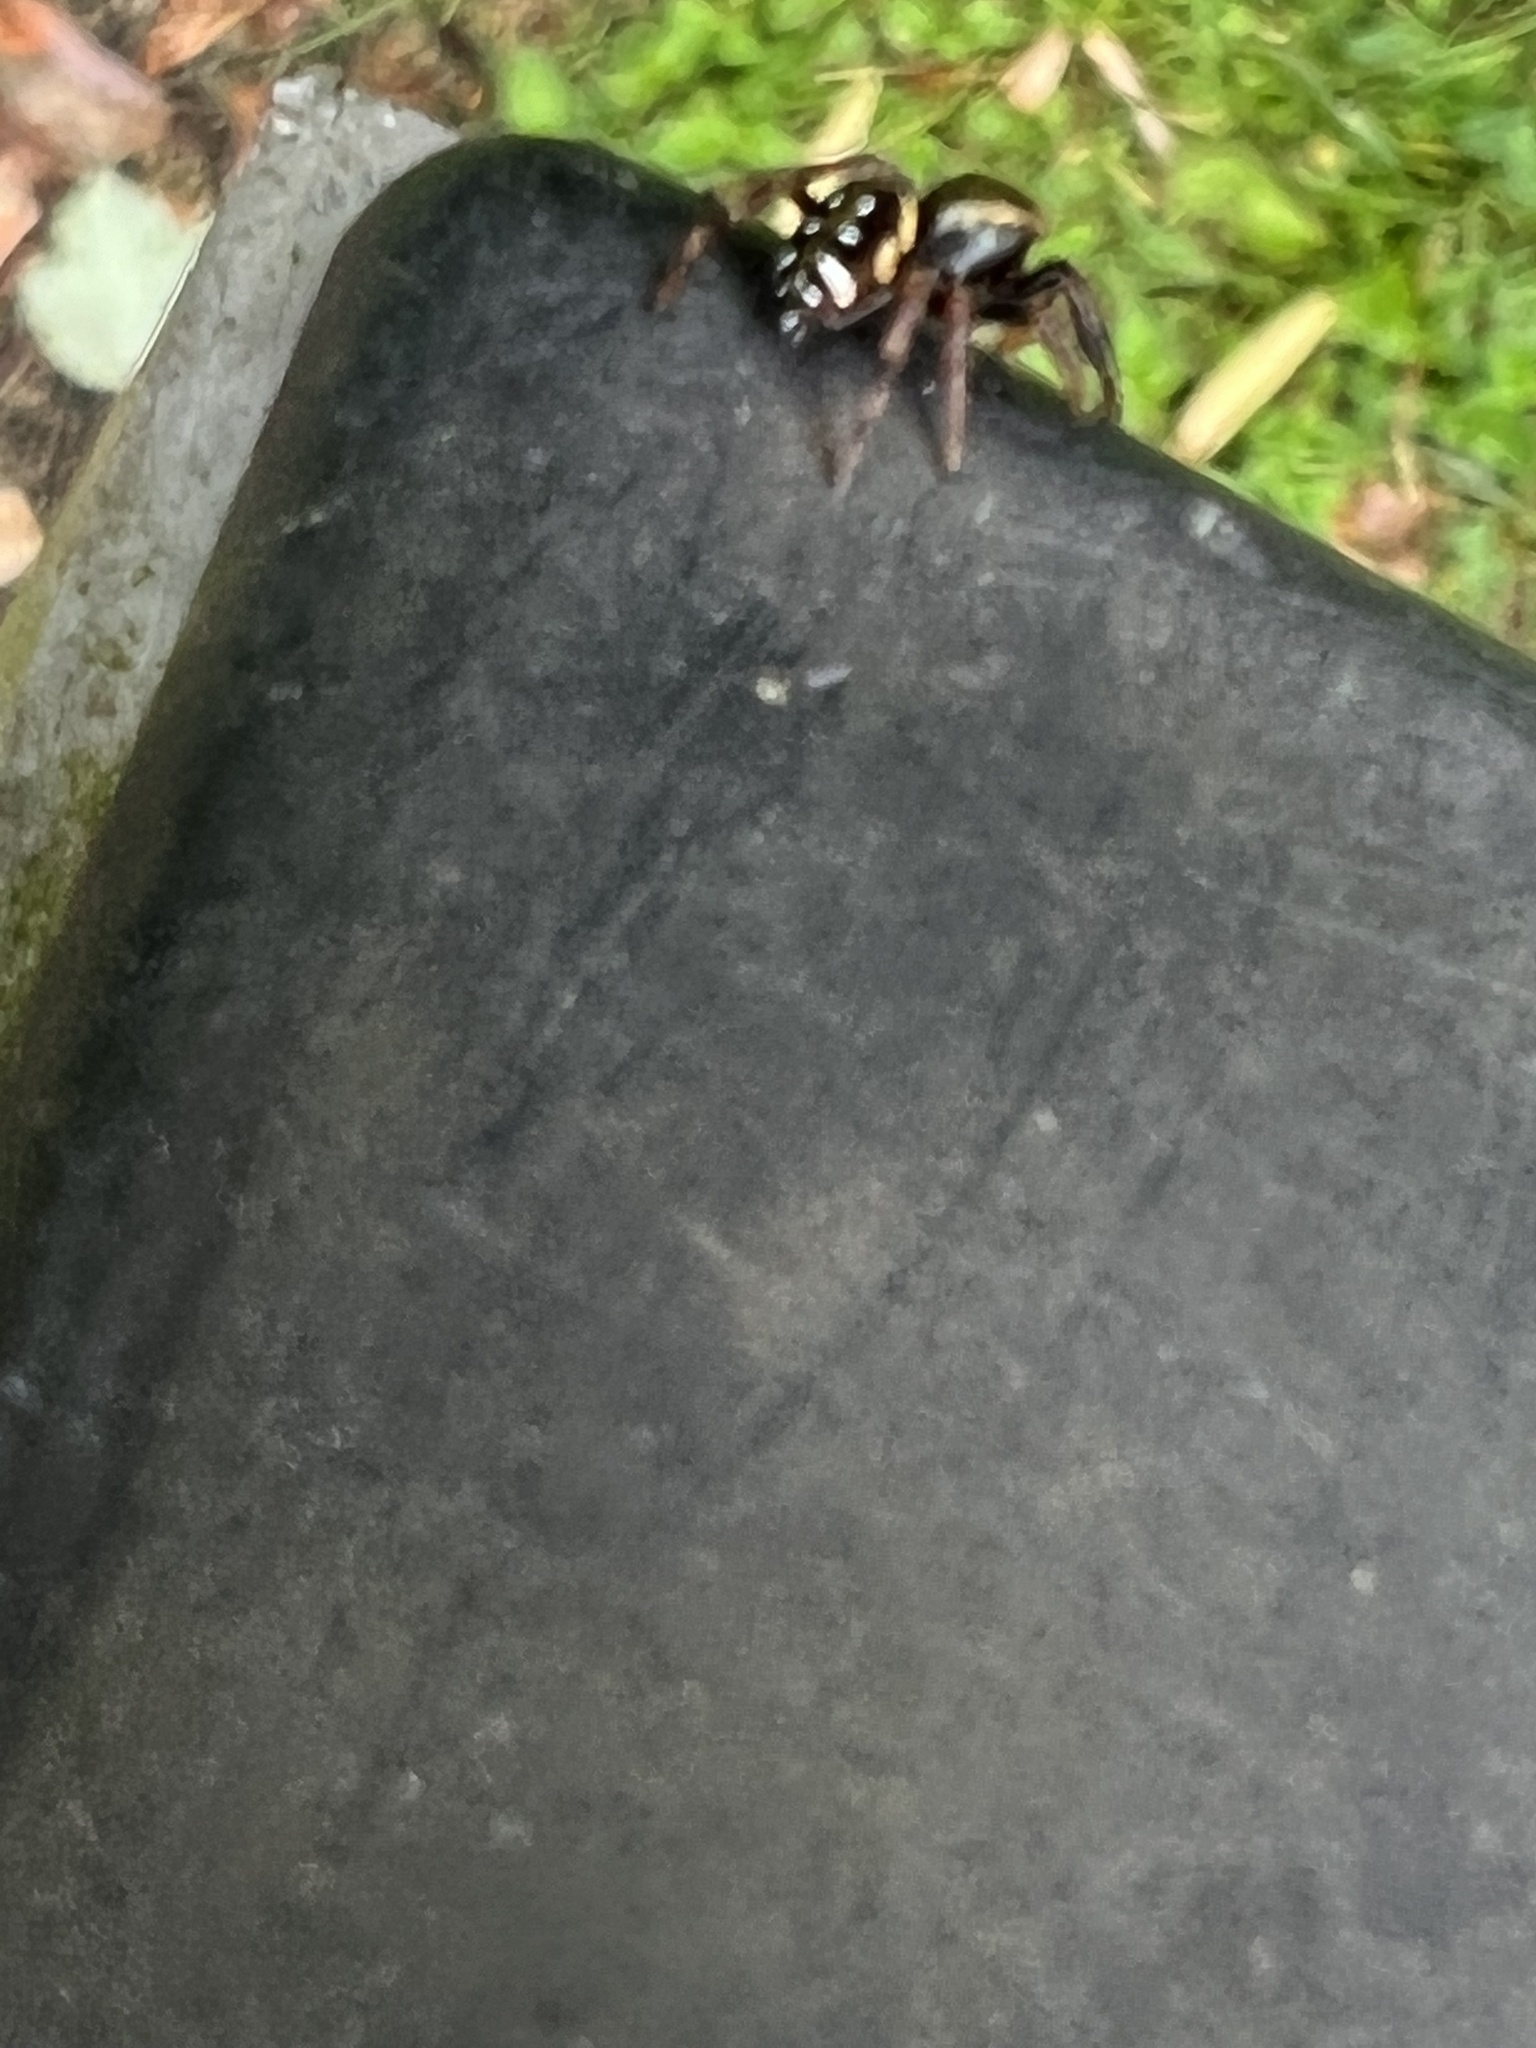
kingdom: Animalia
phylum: Arthropoda
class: Arachnida
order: Araneae
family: Salticidae
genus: Paraphidippus
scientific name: Paraphidippus aurantius
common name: Jumping spiders
